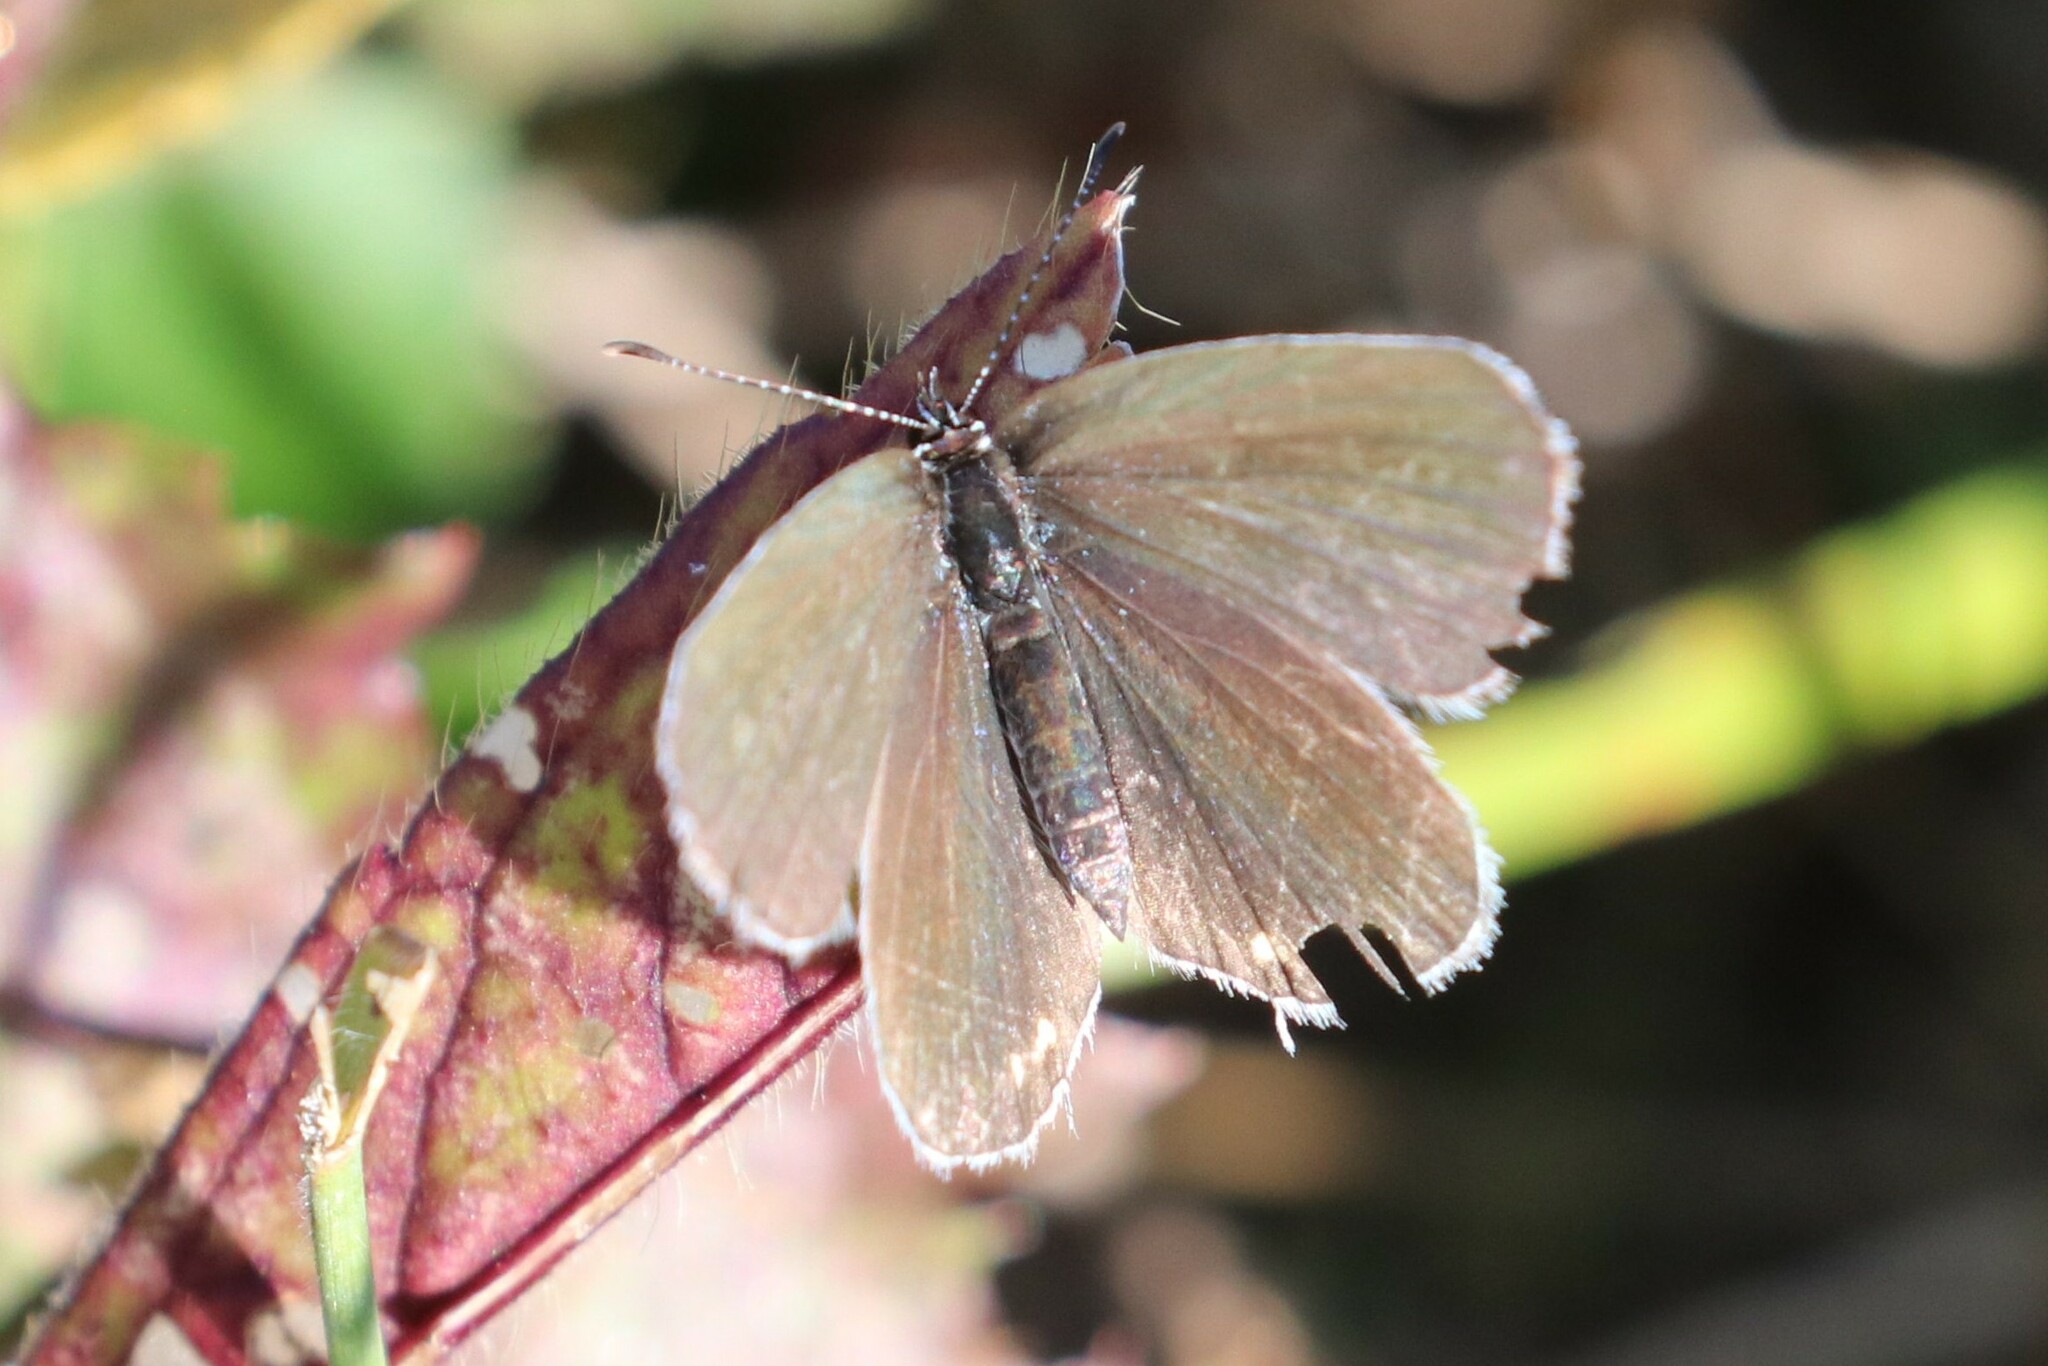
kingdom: Animalia
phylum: Arthropoda
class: Insecta
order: Lepidoptera
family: Lycaenidae
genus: Elkalyce
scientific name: Elkalyce argiades
